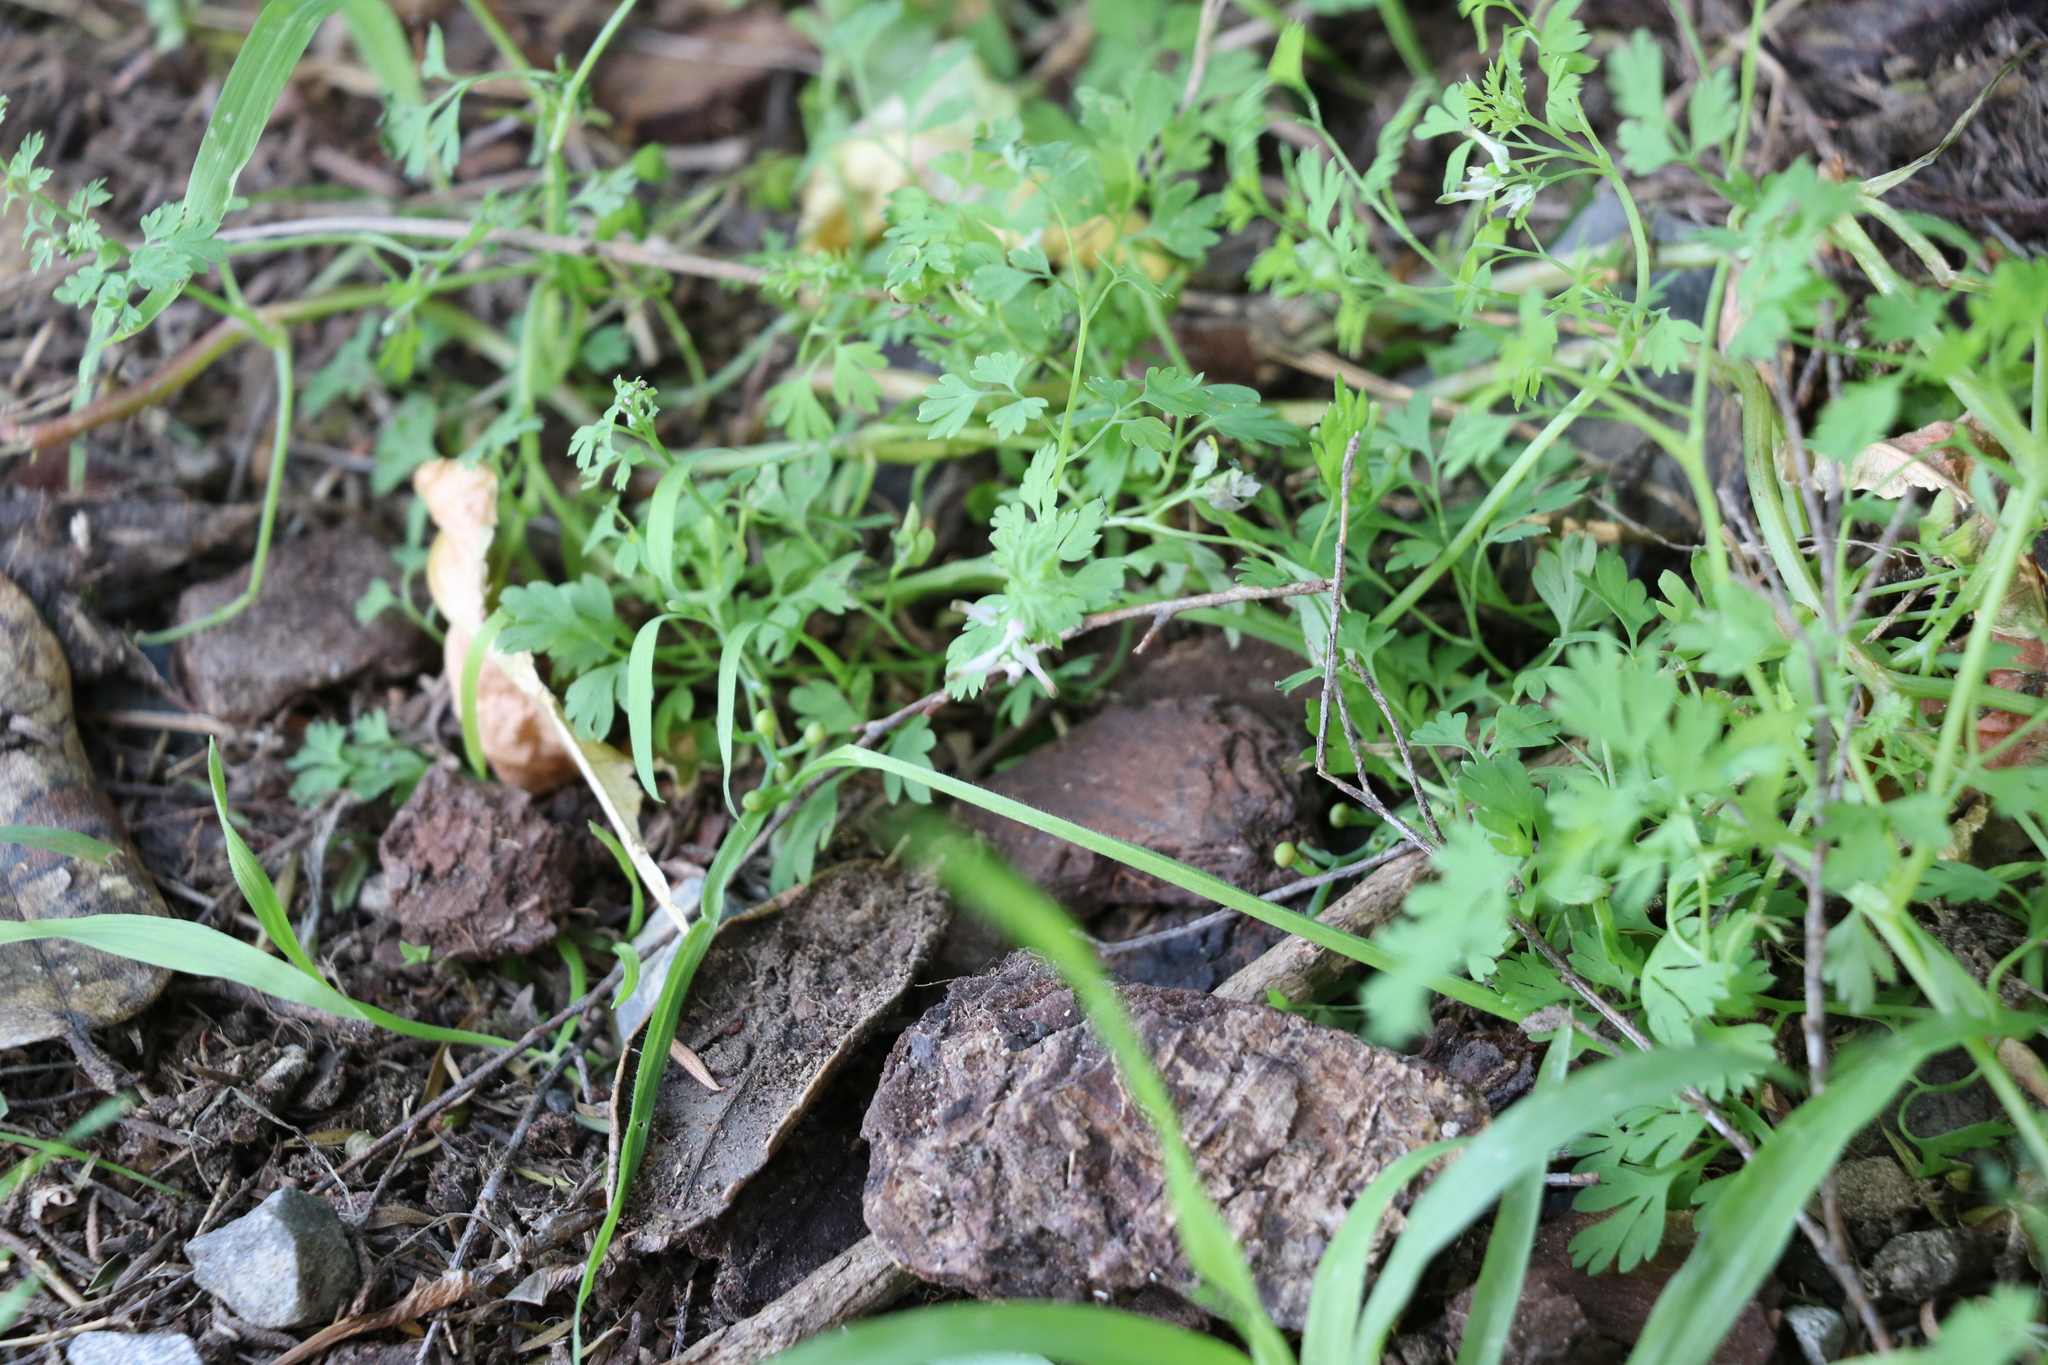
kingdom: Plantae
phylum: Tracheophyta
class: Magnoliopsida
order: Ranunculales
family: Papaveraceae
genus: Fumaria
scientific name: Fumaria muralis
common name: Common ramping-fumitory
